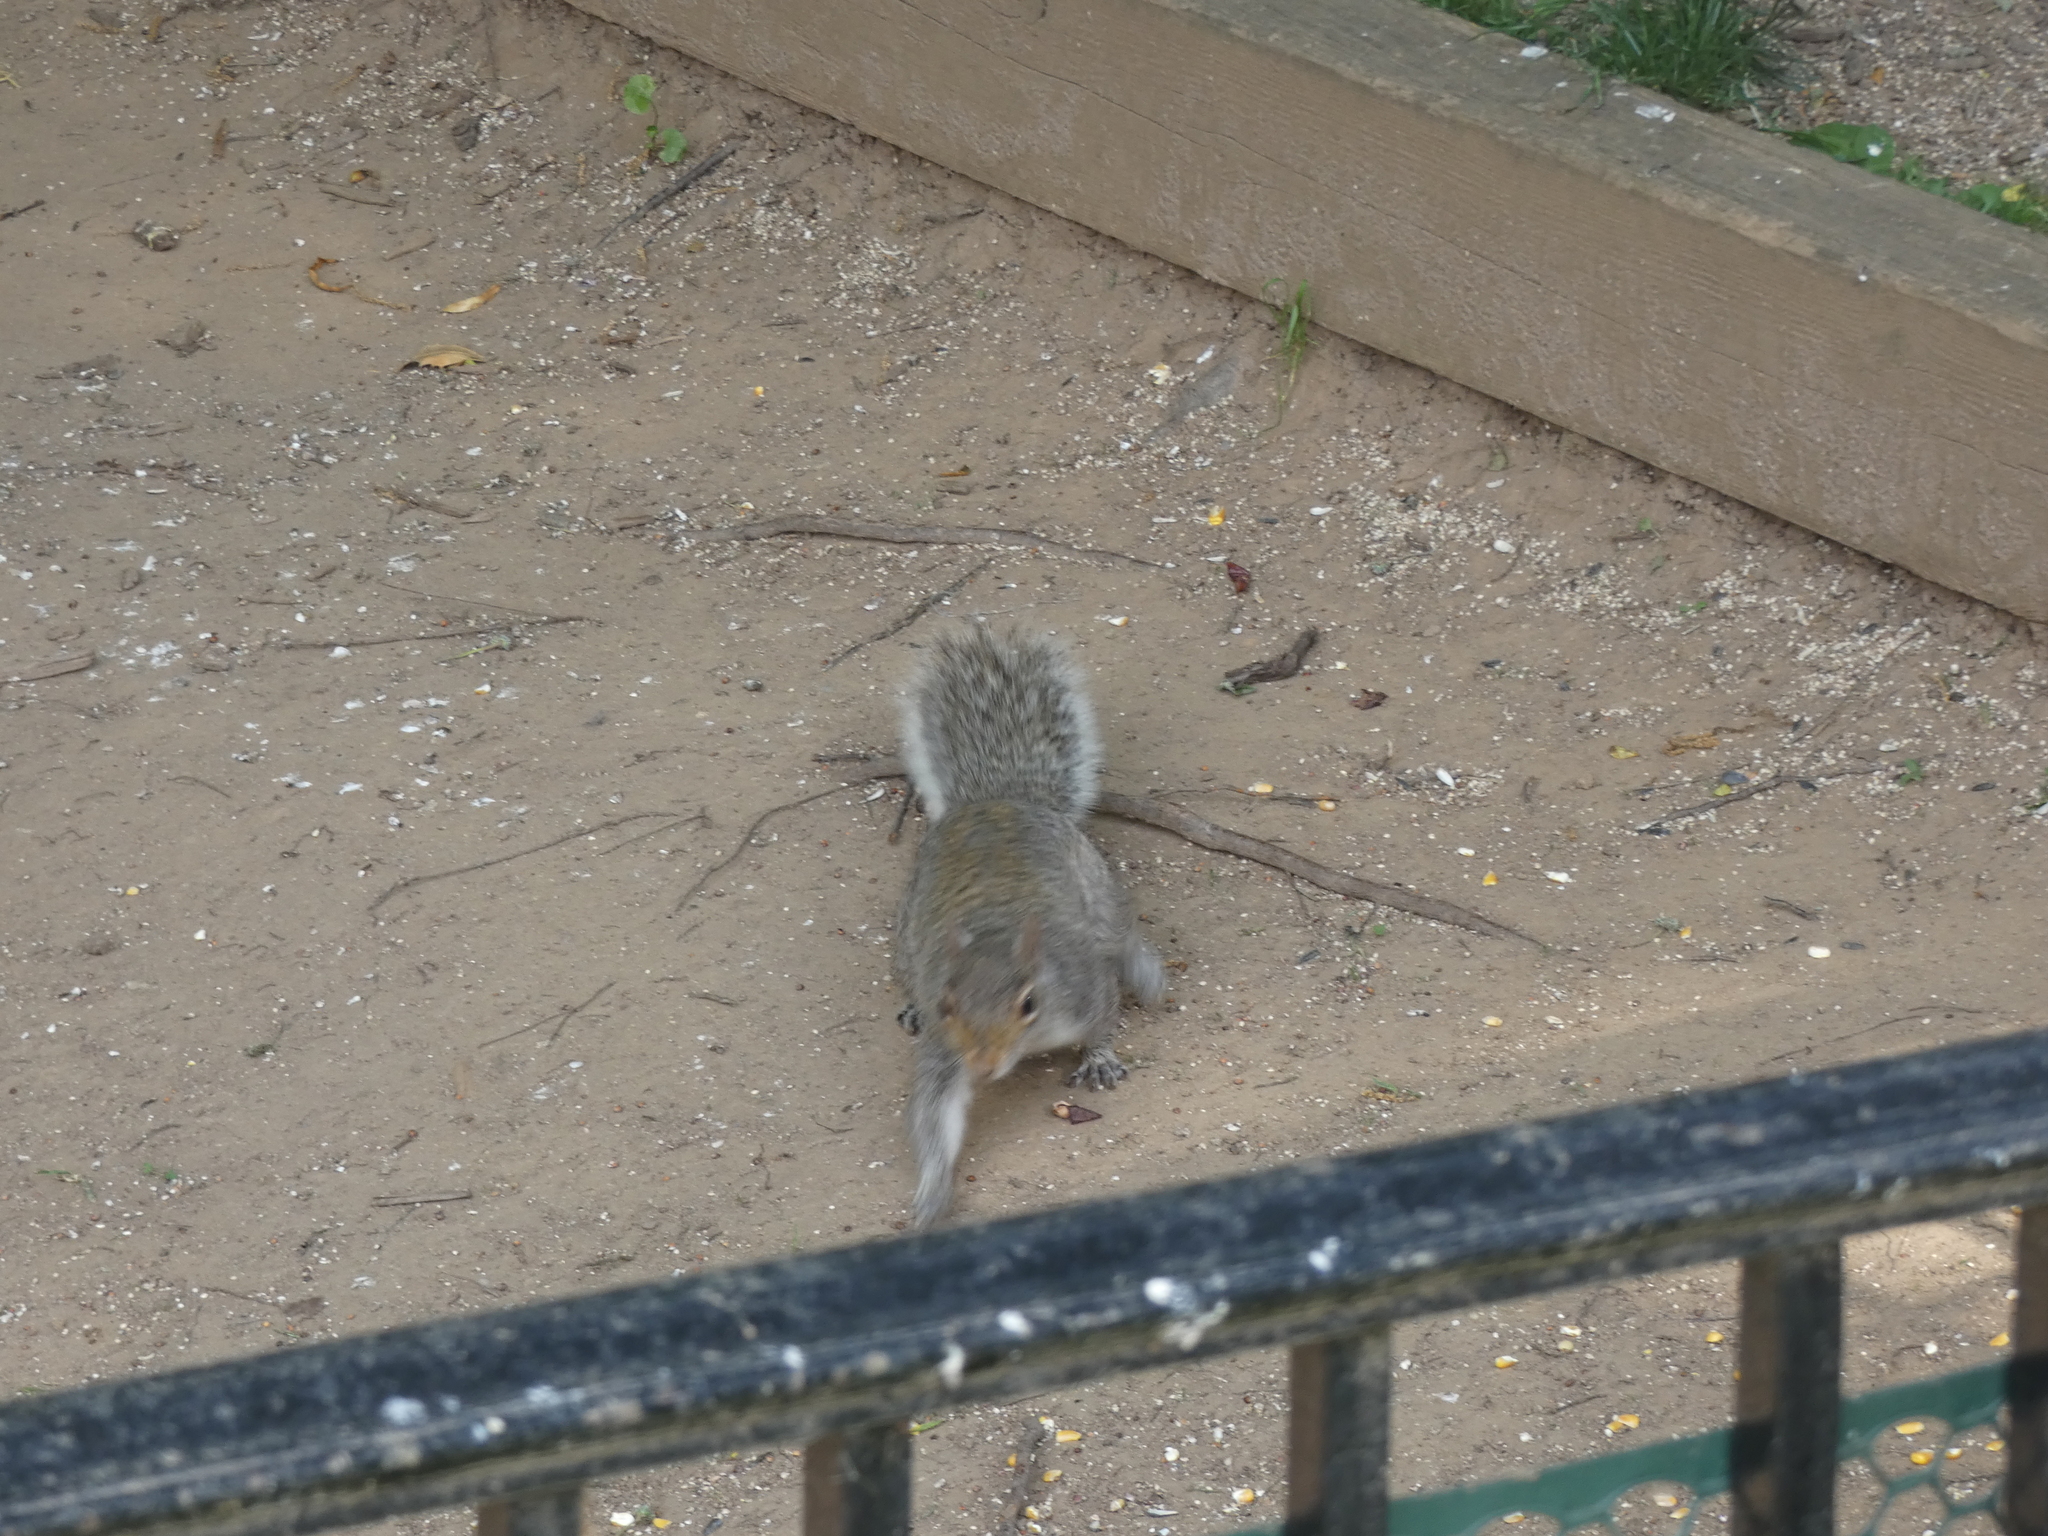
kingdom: Animalia
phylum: Chordata
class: Mammalia
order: Rodentia
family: Sciuridae
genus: Sciurus
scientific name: Sciurus carolinensis
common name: Eastern gray squirrel
